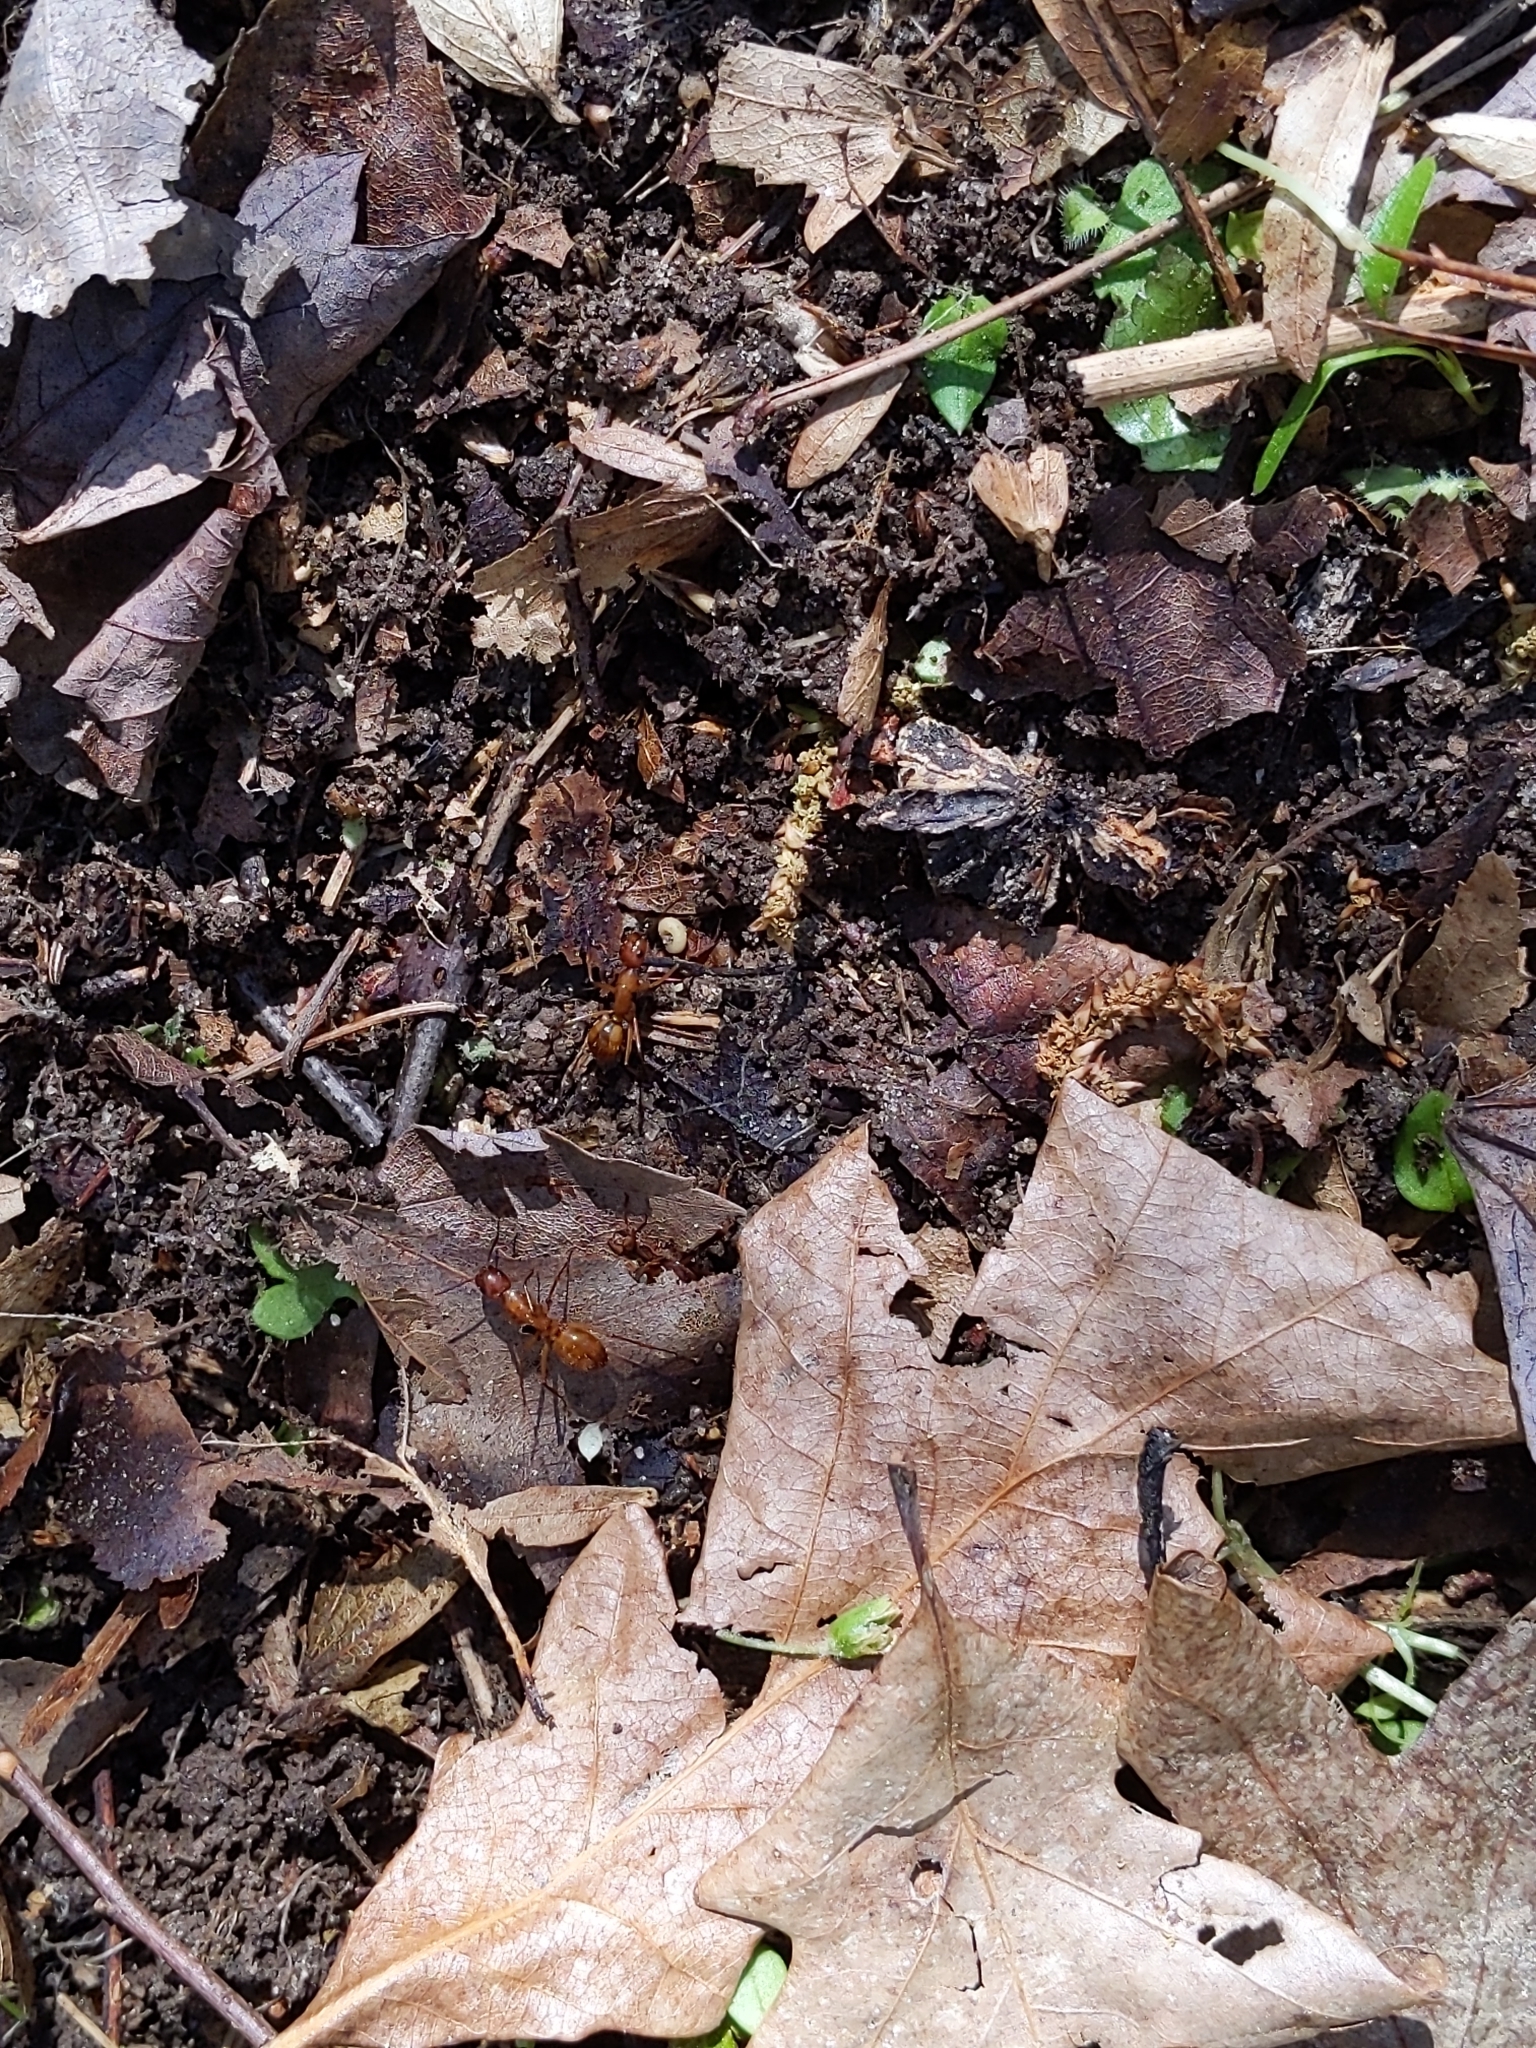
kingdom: Animalia
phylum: Arthropoda
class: Insecta
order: Hymenoptera
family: Formicidae
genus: Camponotus
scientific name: Camponotus castaneus
